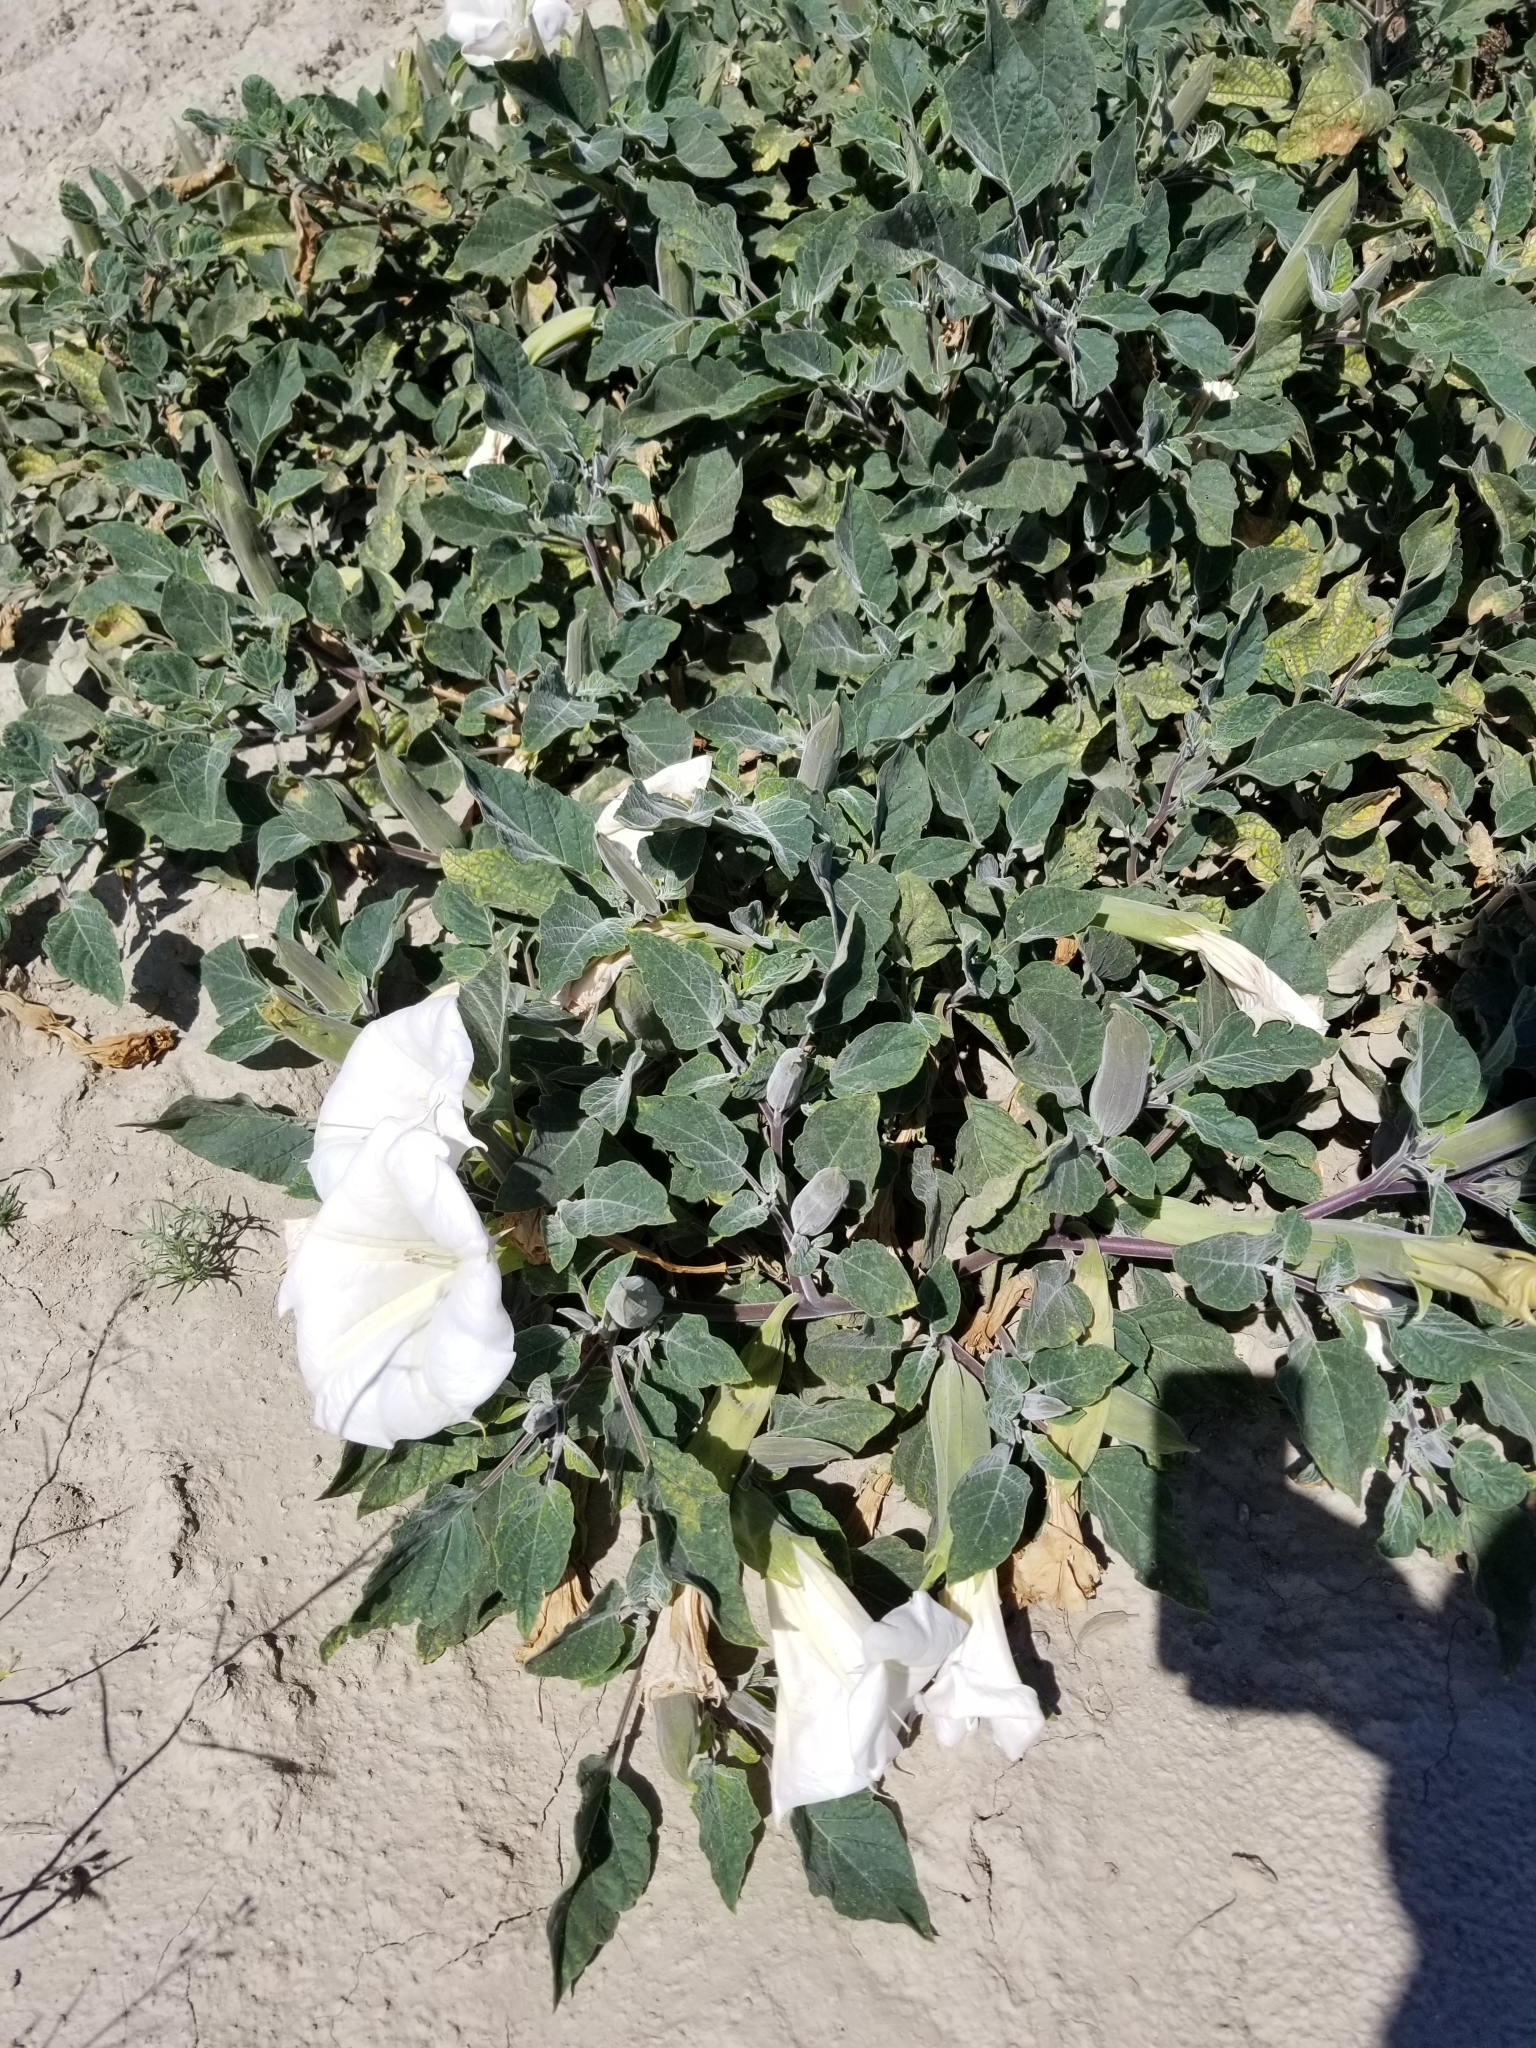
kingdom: Plantae
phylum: Tracheophyta
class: Magnoliopsida
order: Solanales
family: Solanaceae
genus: Datura
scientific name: Datura wrightii
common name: Sacred thorn-apple
